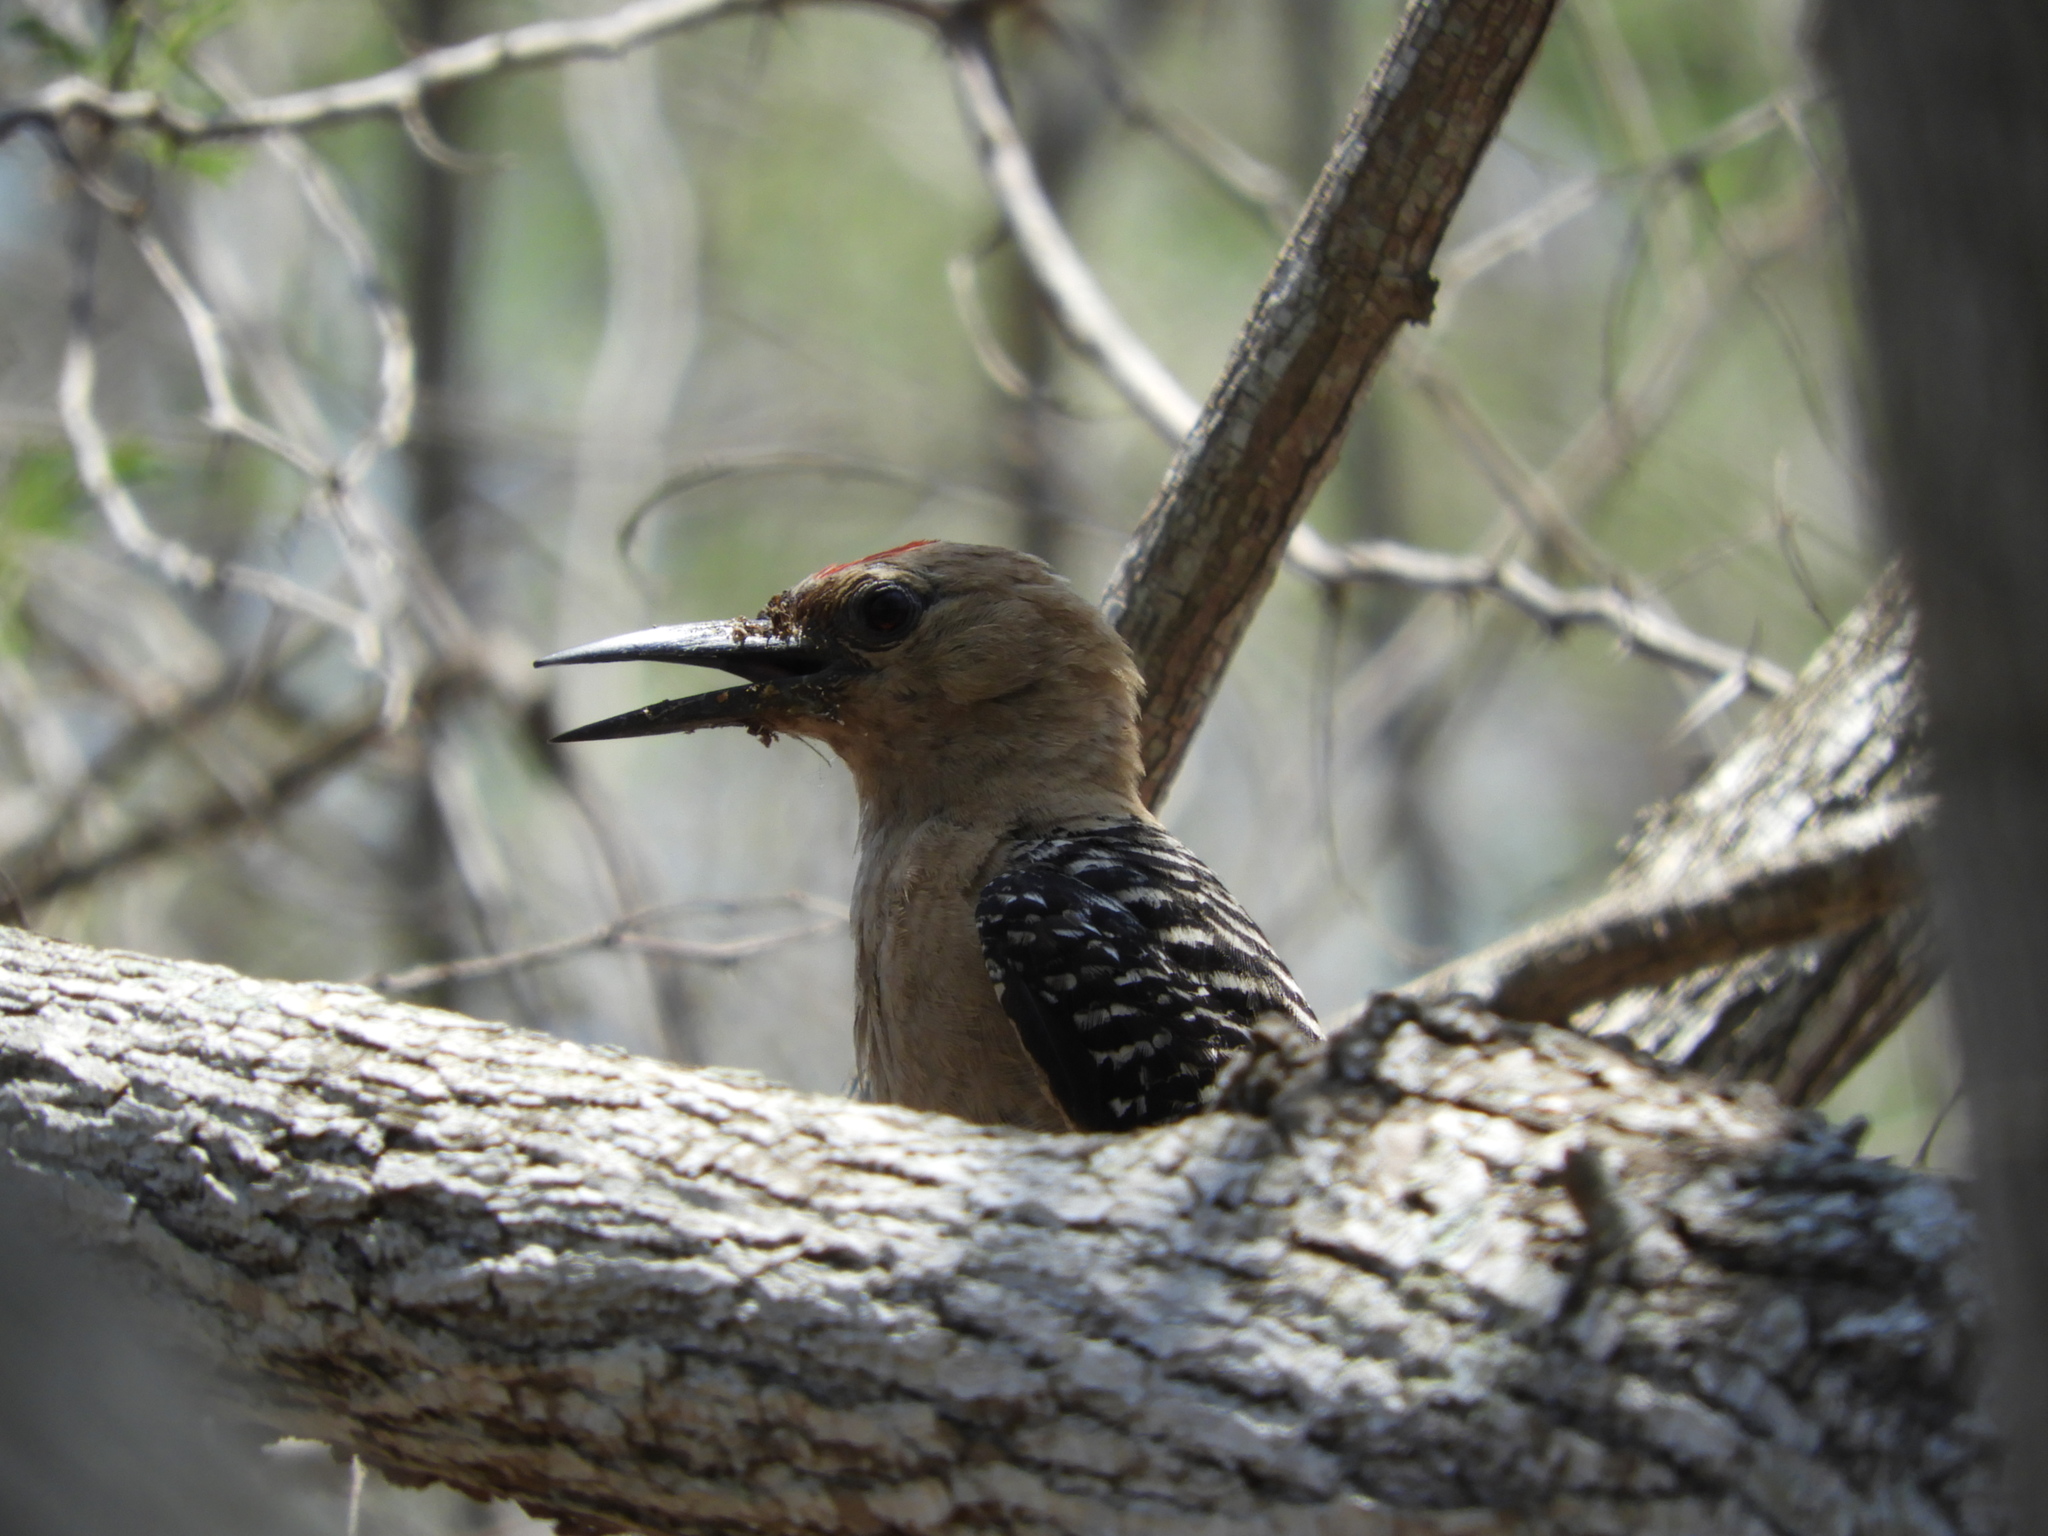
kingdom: Animalia
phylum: Chordata
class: Aves
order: Piciformes
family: Picidae
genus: Melanerpes
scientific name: Melanerpes uropygialis
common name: Gila woodpecker
